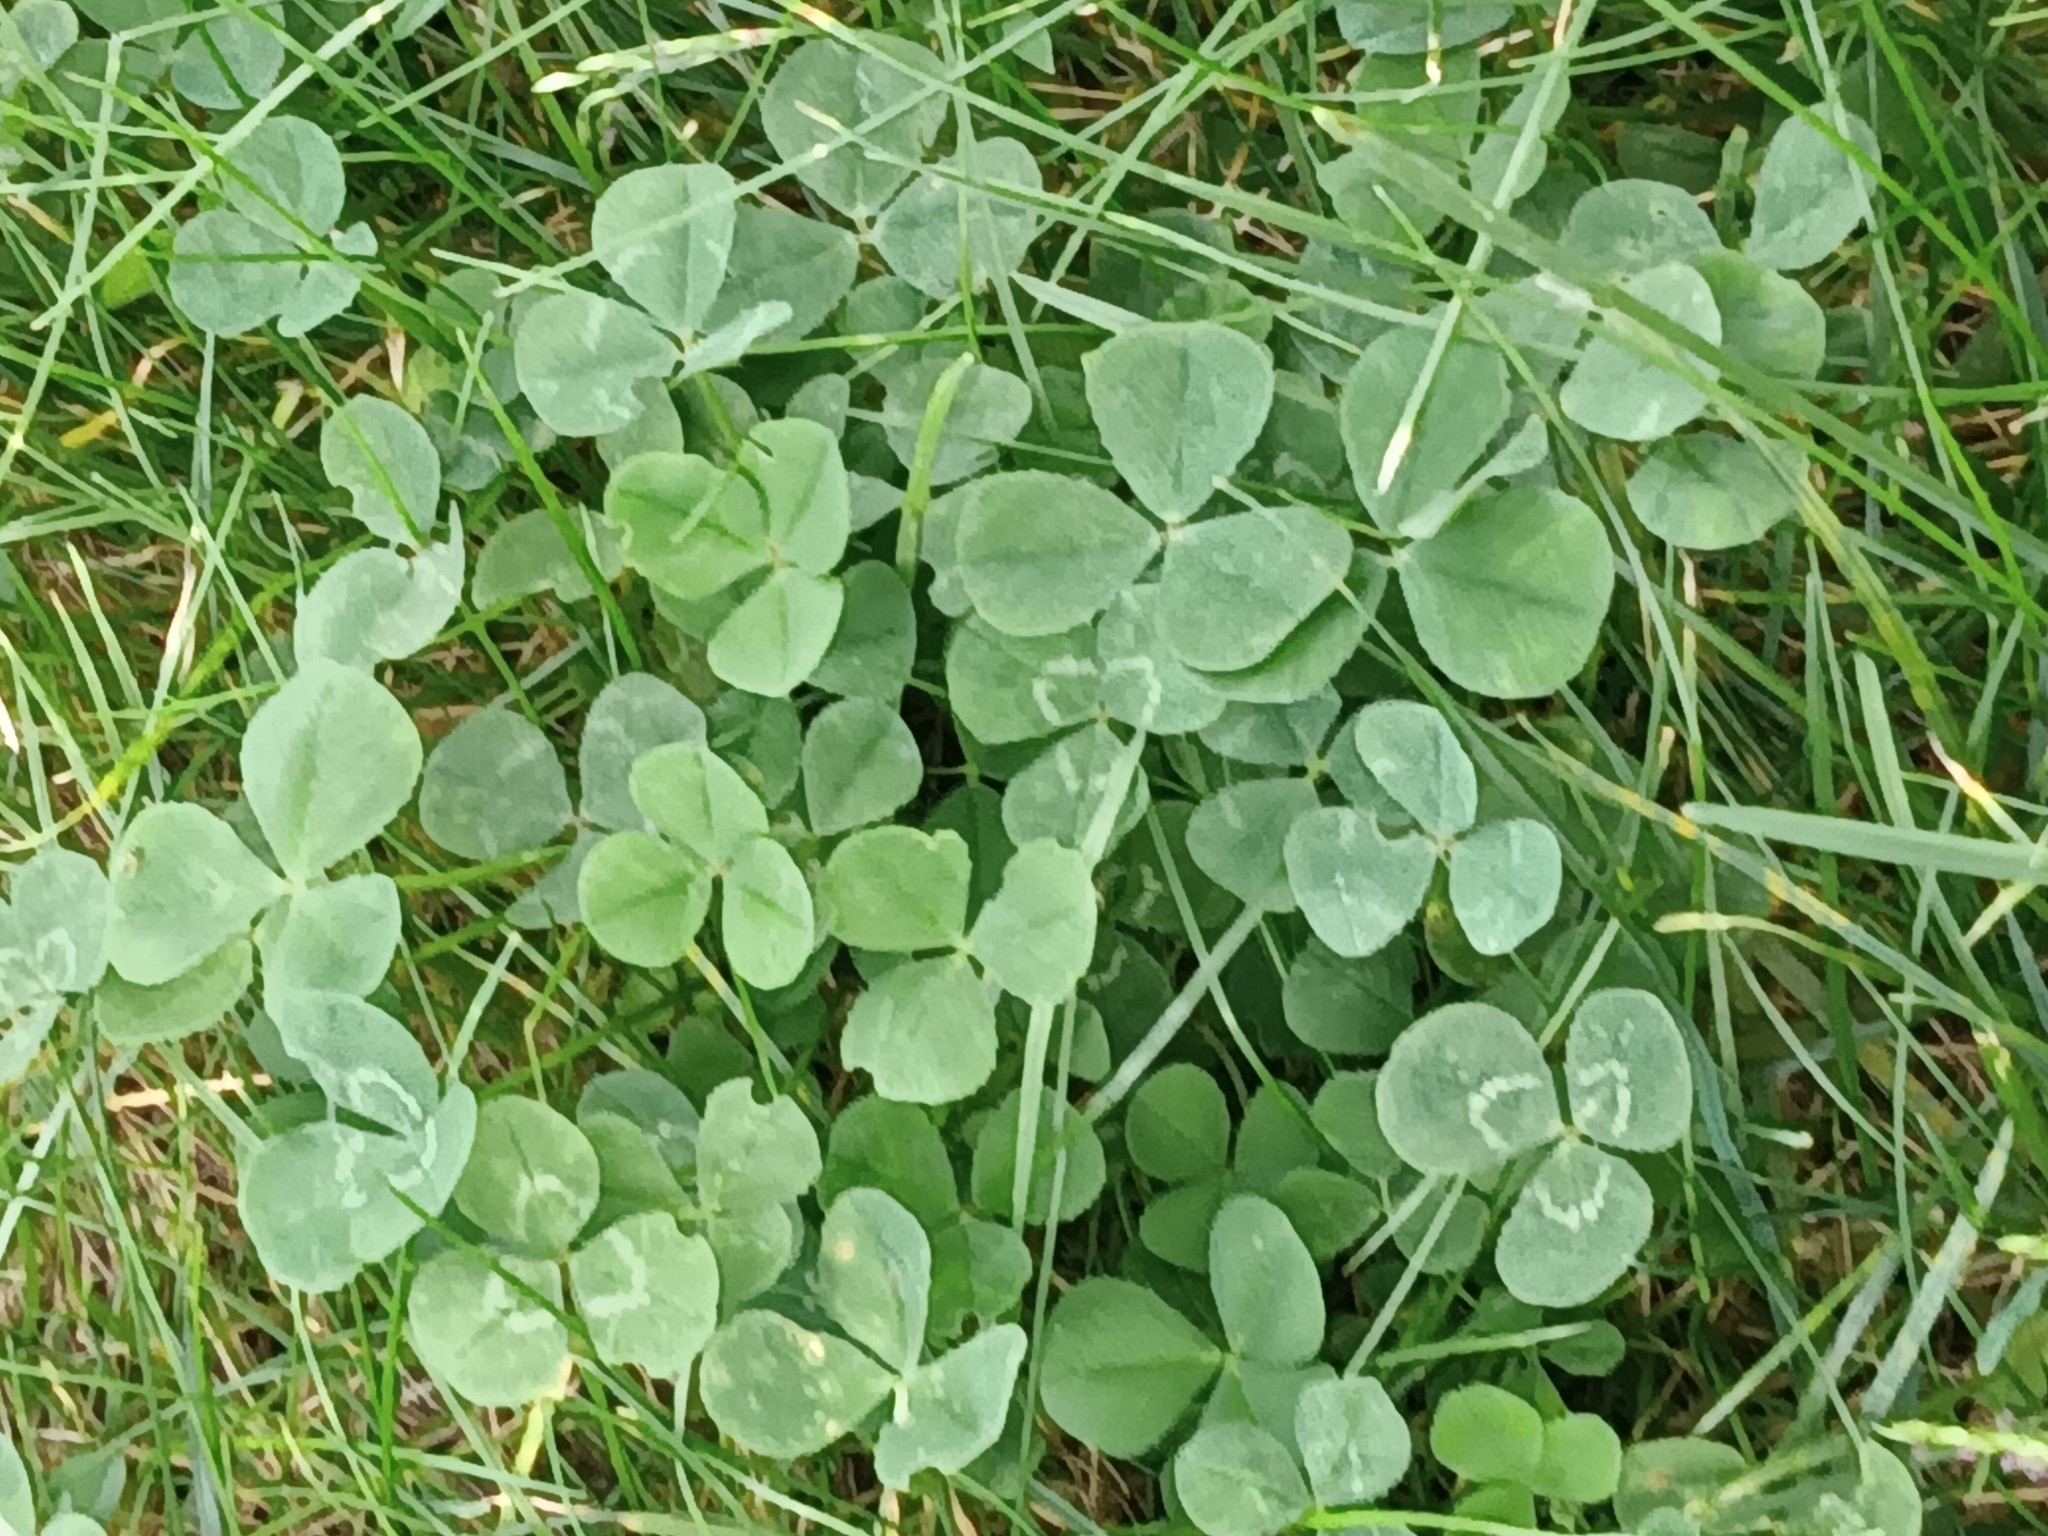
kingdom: Plantae
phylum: Tracheophyta
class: Magnoliopsida
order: Fabales
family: Fabaceae
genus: Trifolium
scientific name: Trifolium repens
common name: White clover
